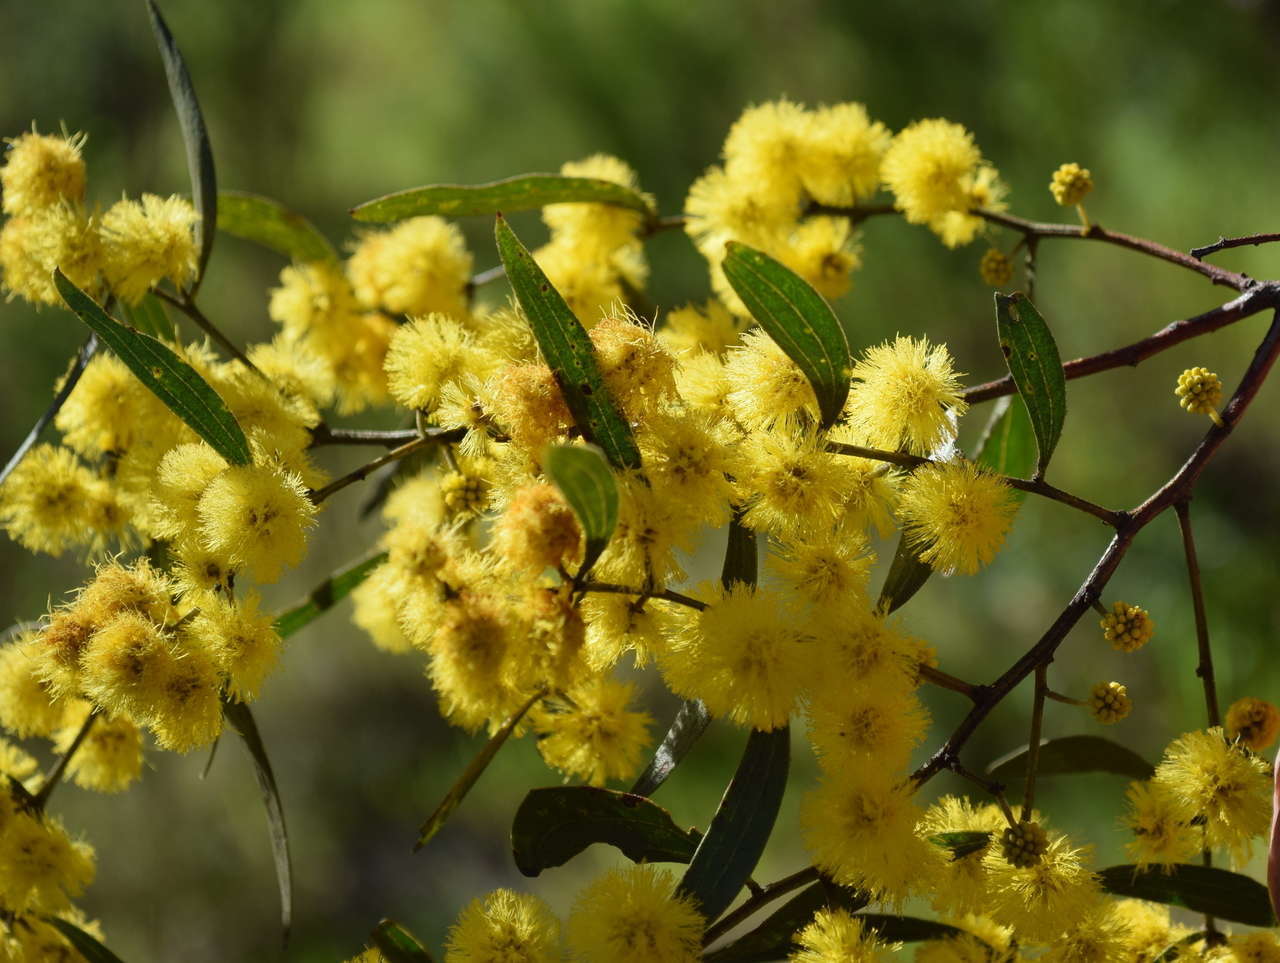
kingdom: Plantae
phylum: Tracheophyta
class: Magnoliopsida
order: Fabales
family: Fabaceae
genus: Acacia
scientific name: Acacia leprosa
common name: Cinnamon wattle
